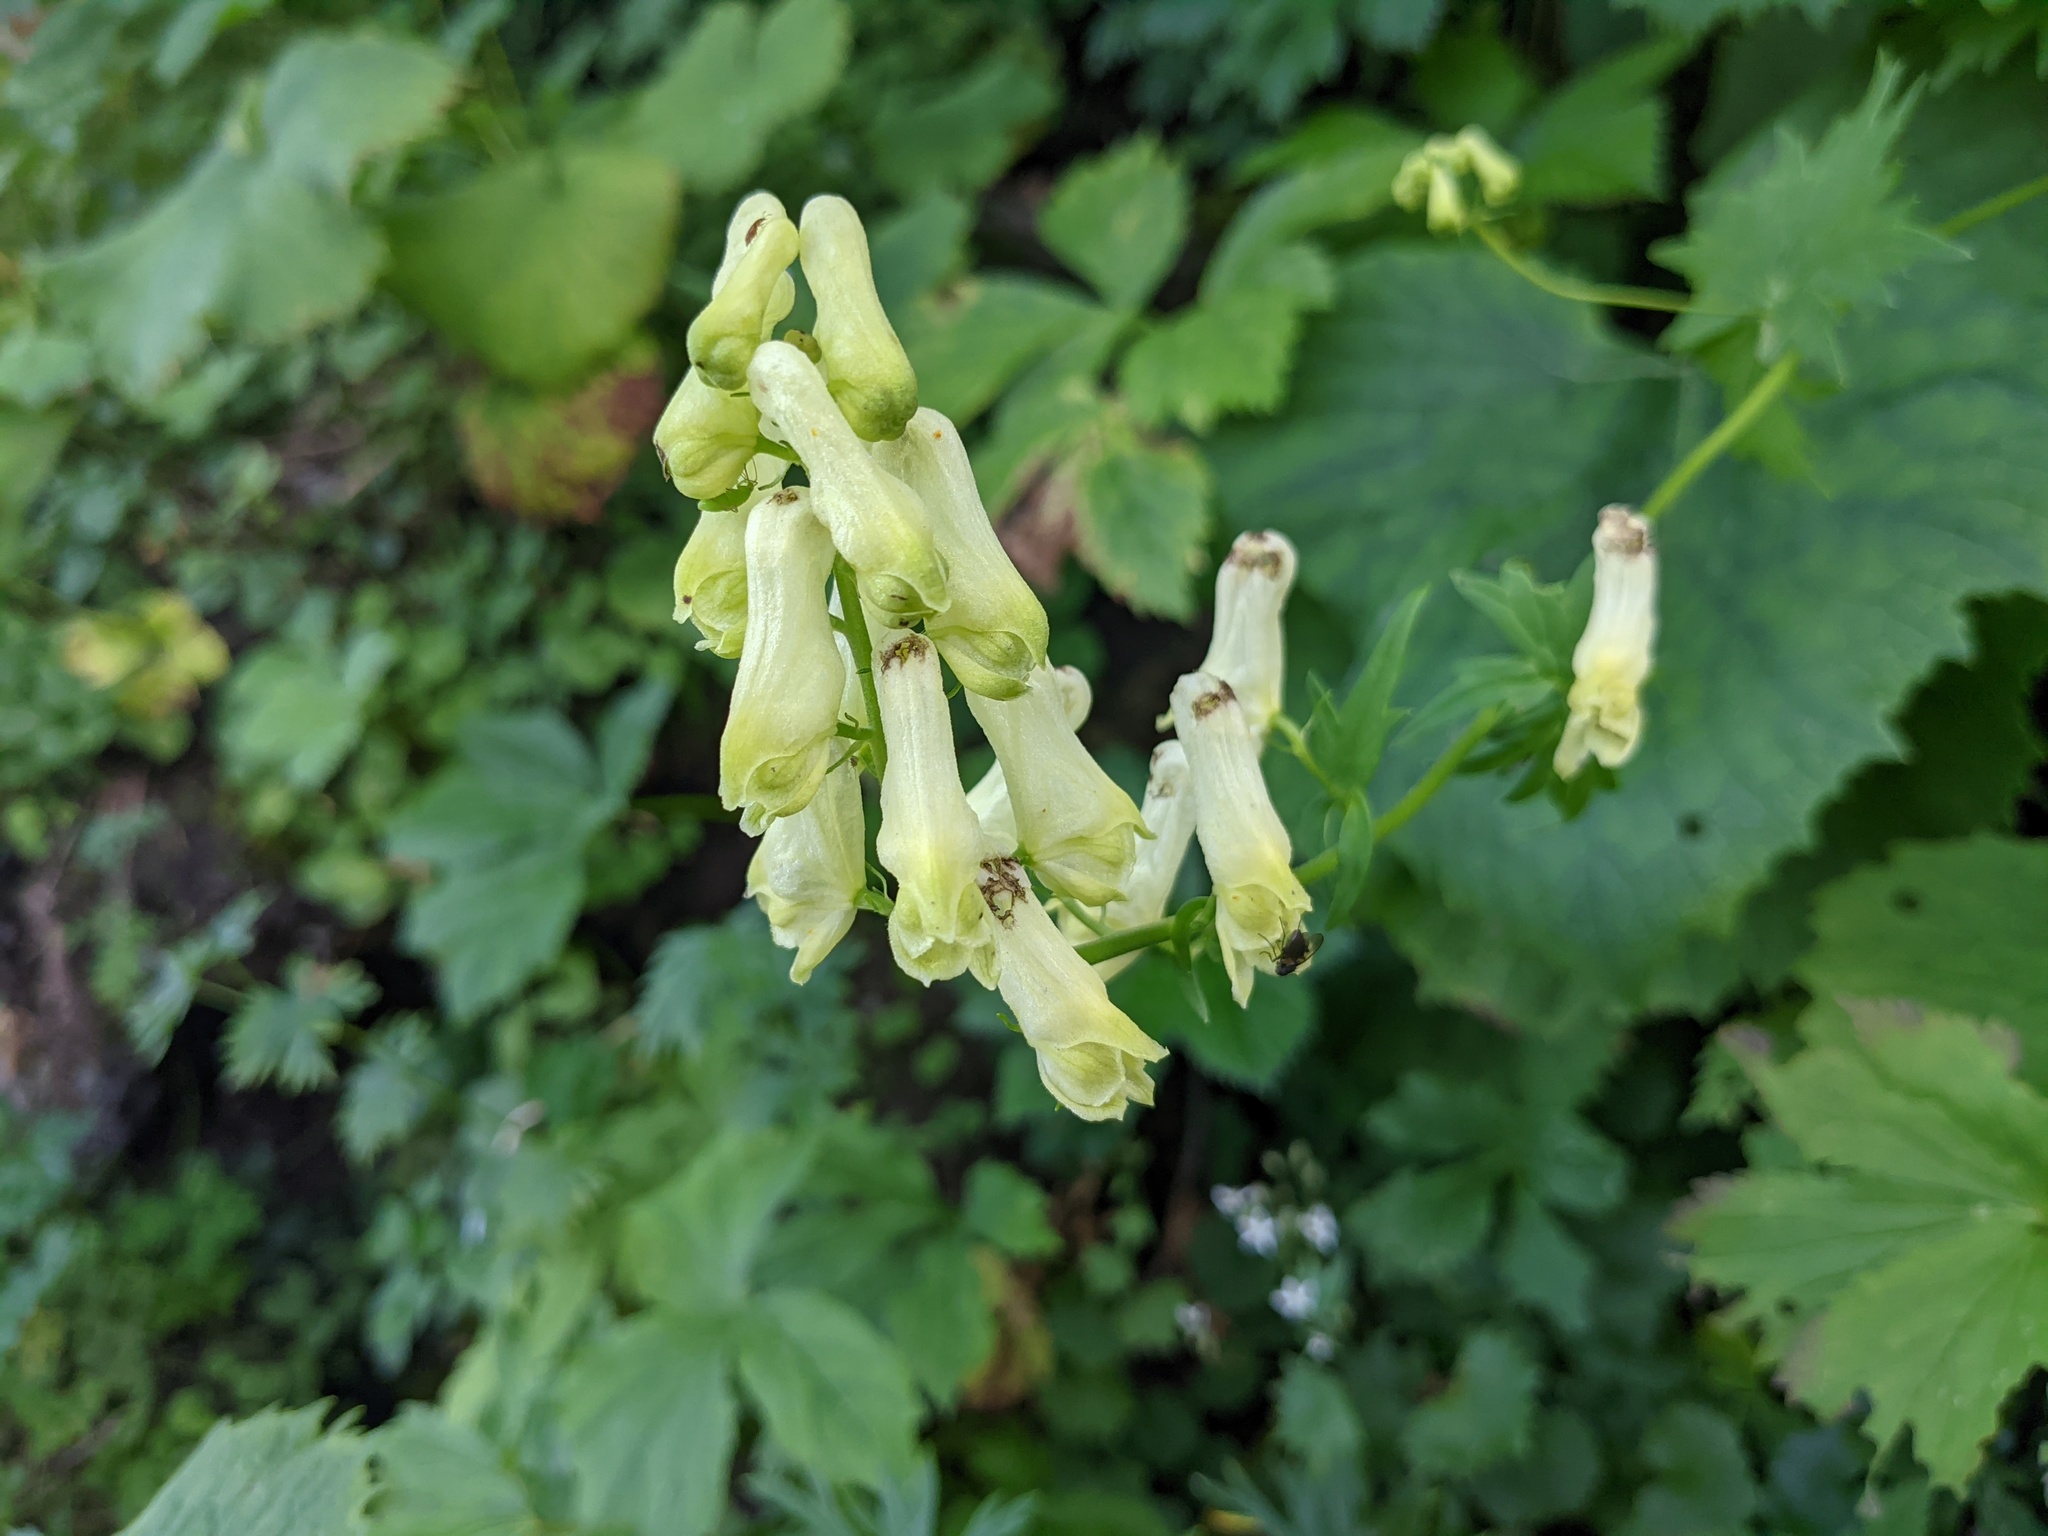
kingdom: Plantae
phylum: Tracheophyta
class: Magnoliopsida
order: Ranunculales
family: Ranunculaceae
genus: Aconitum
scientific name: Aconitum lycoctonum
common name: Wolf's-bane
